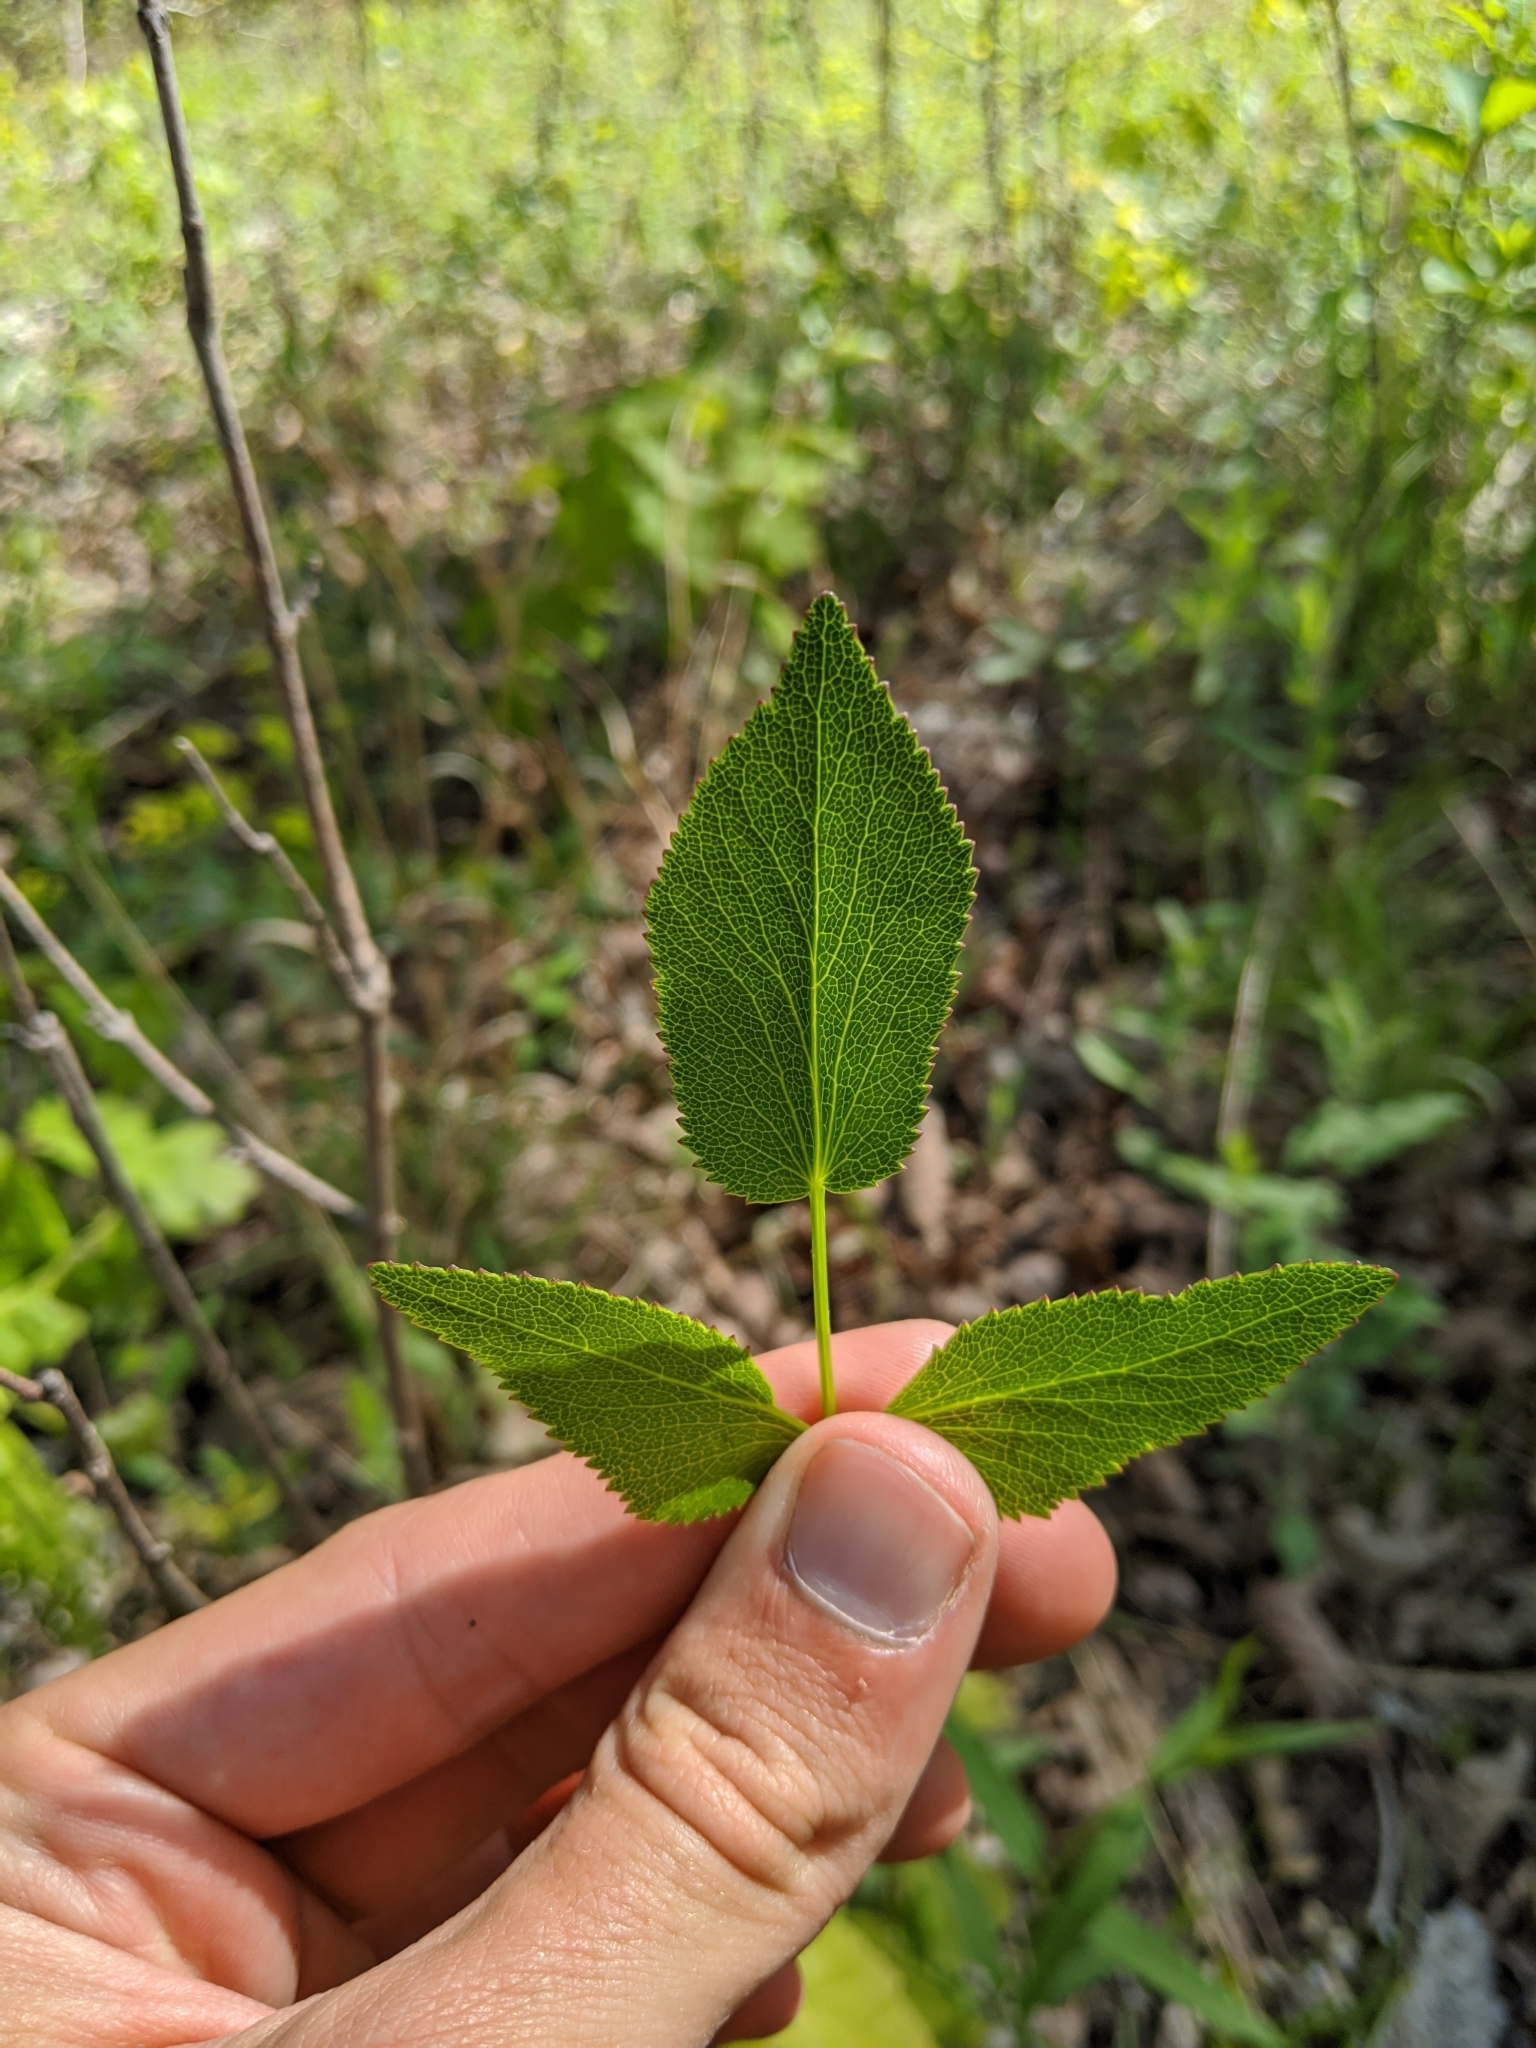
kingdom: Plantae
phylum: Tracheophyta
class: Magnoliopsida
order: Apiales
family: Apiaceae
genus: Zizia
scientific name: Zizia aptera
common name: Heart-leaved alexanders
